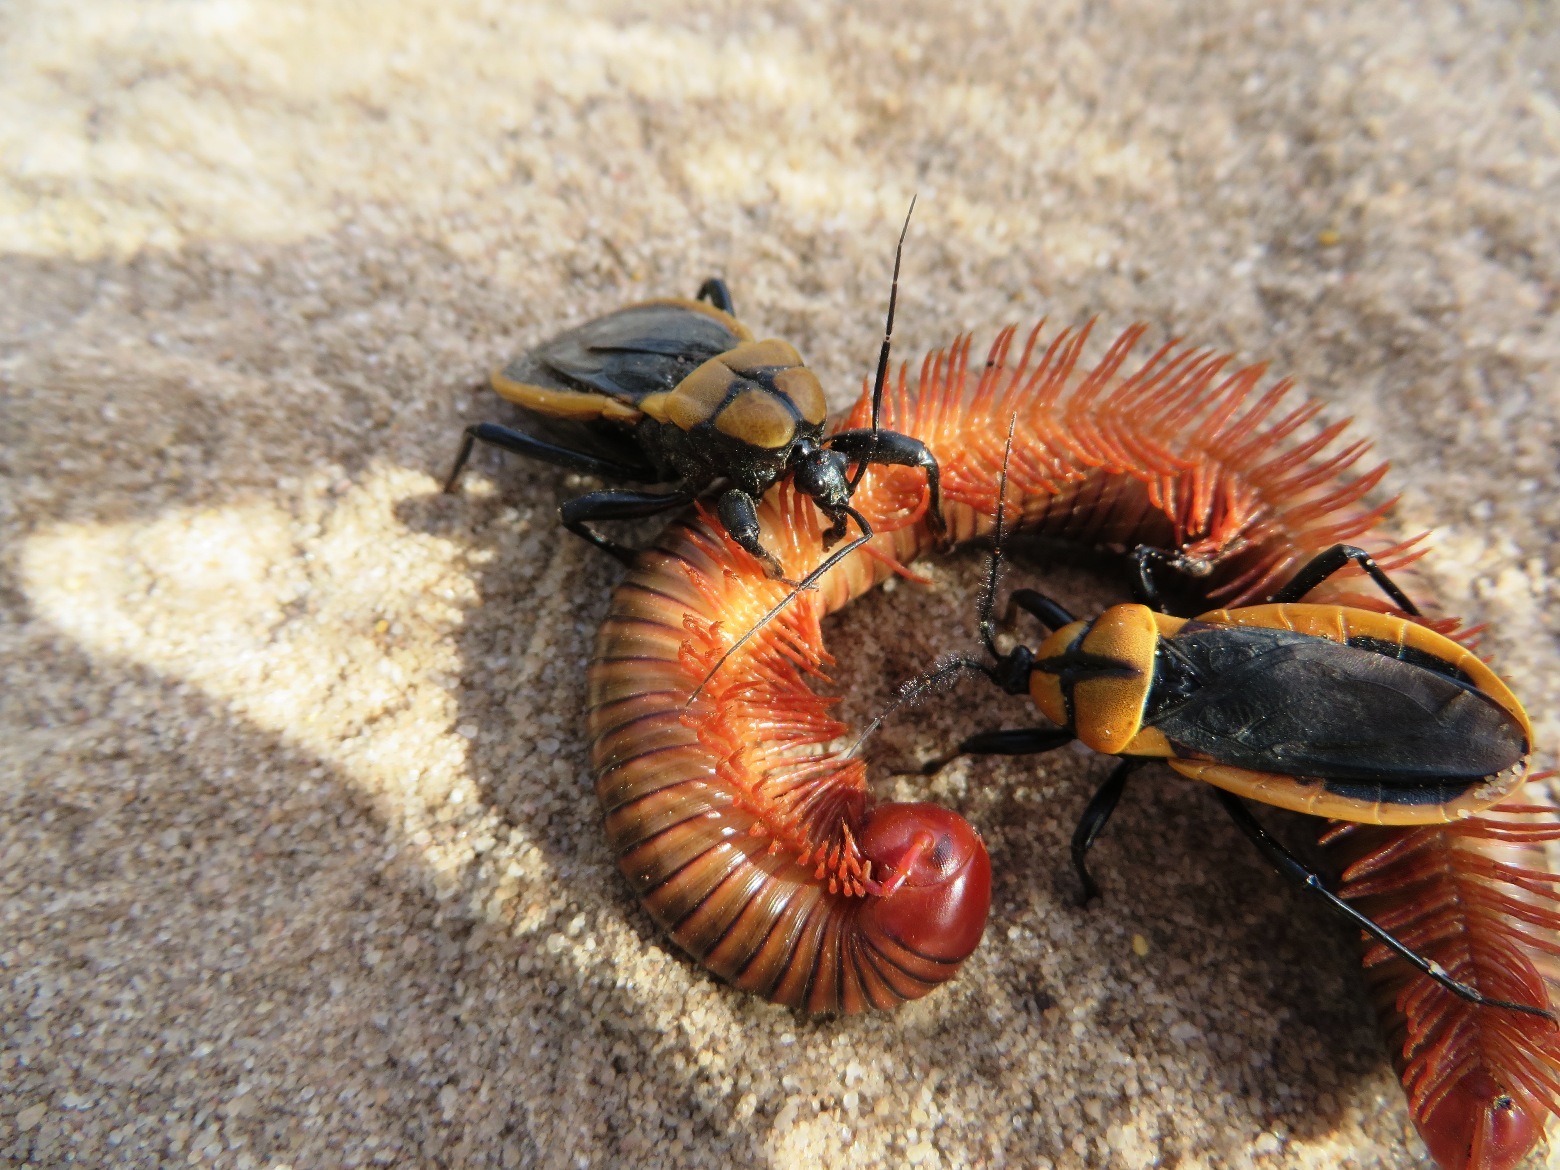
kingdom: Animalia
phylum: Arthropoda
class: Insecta
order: Hemiptera
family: Reduviidae
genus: Ectrichodia
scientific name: Ectrichodia crux
